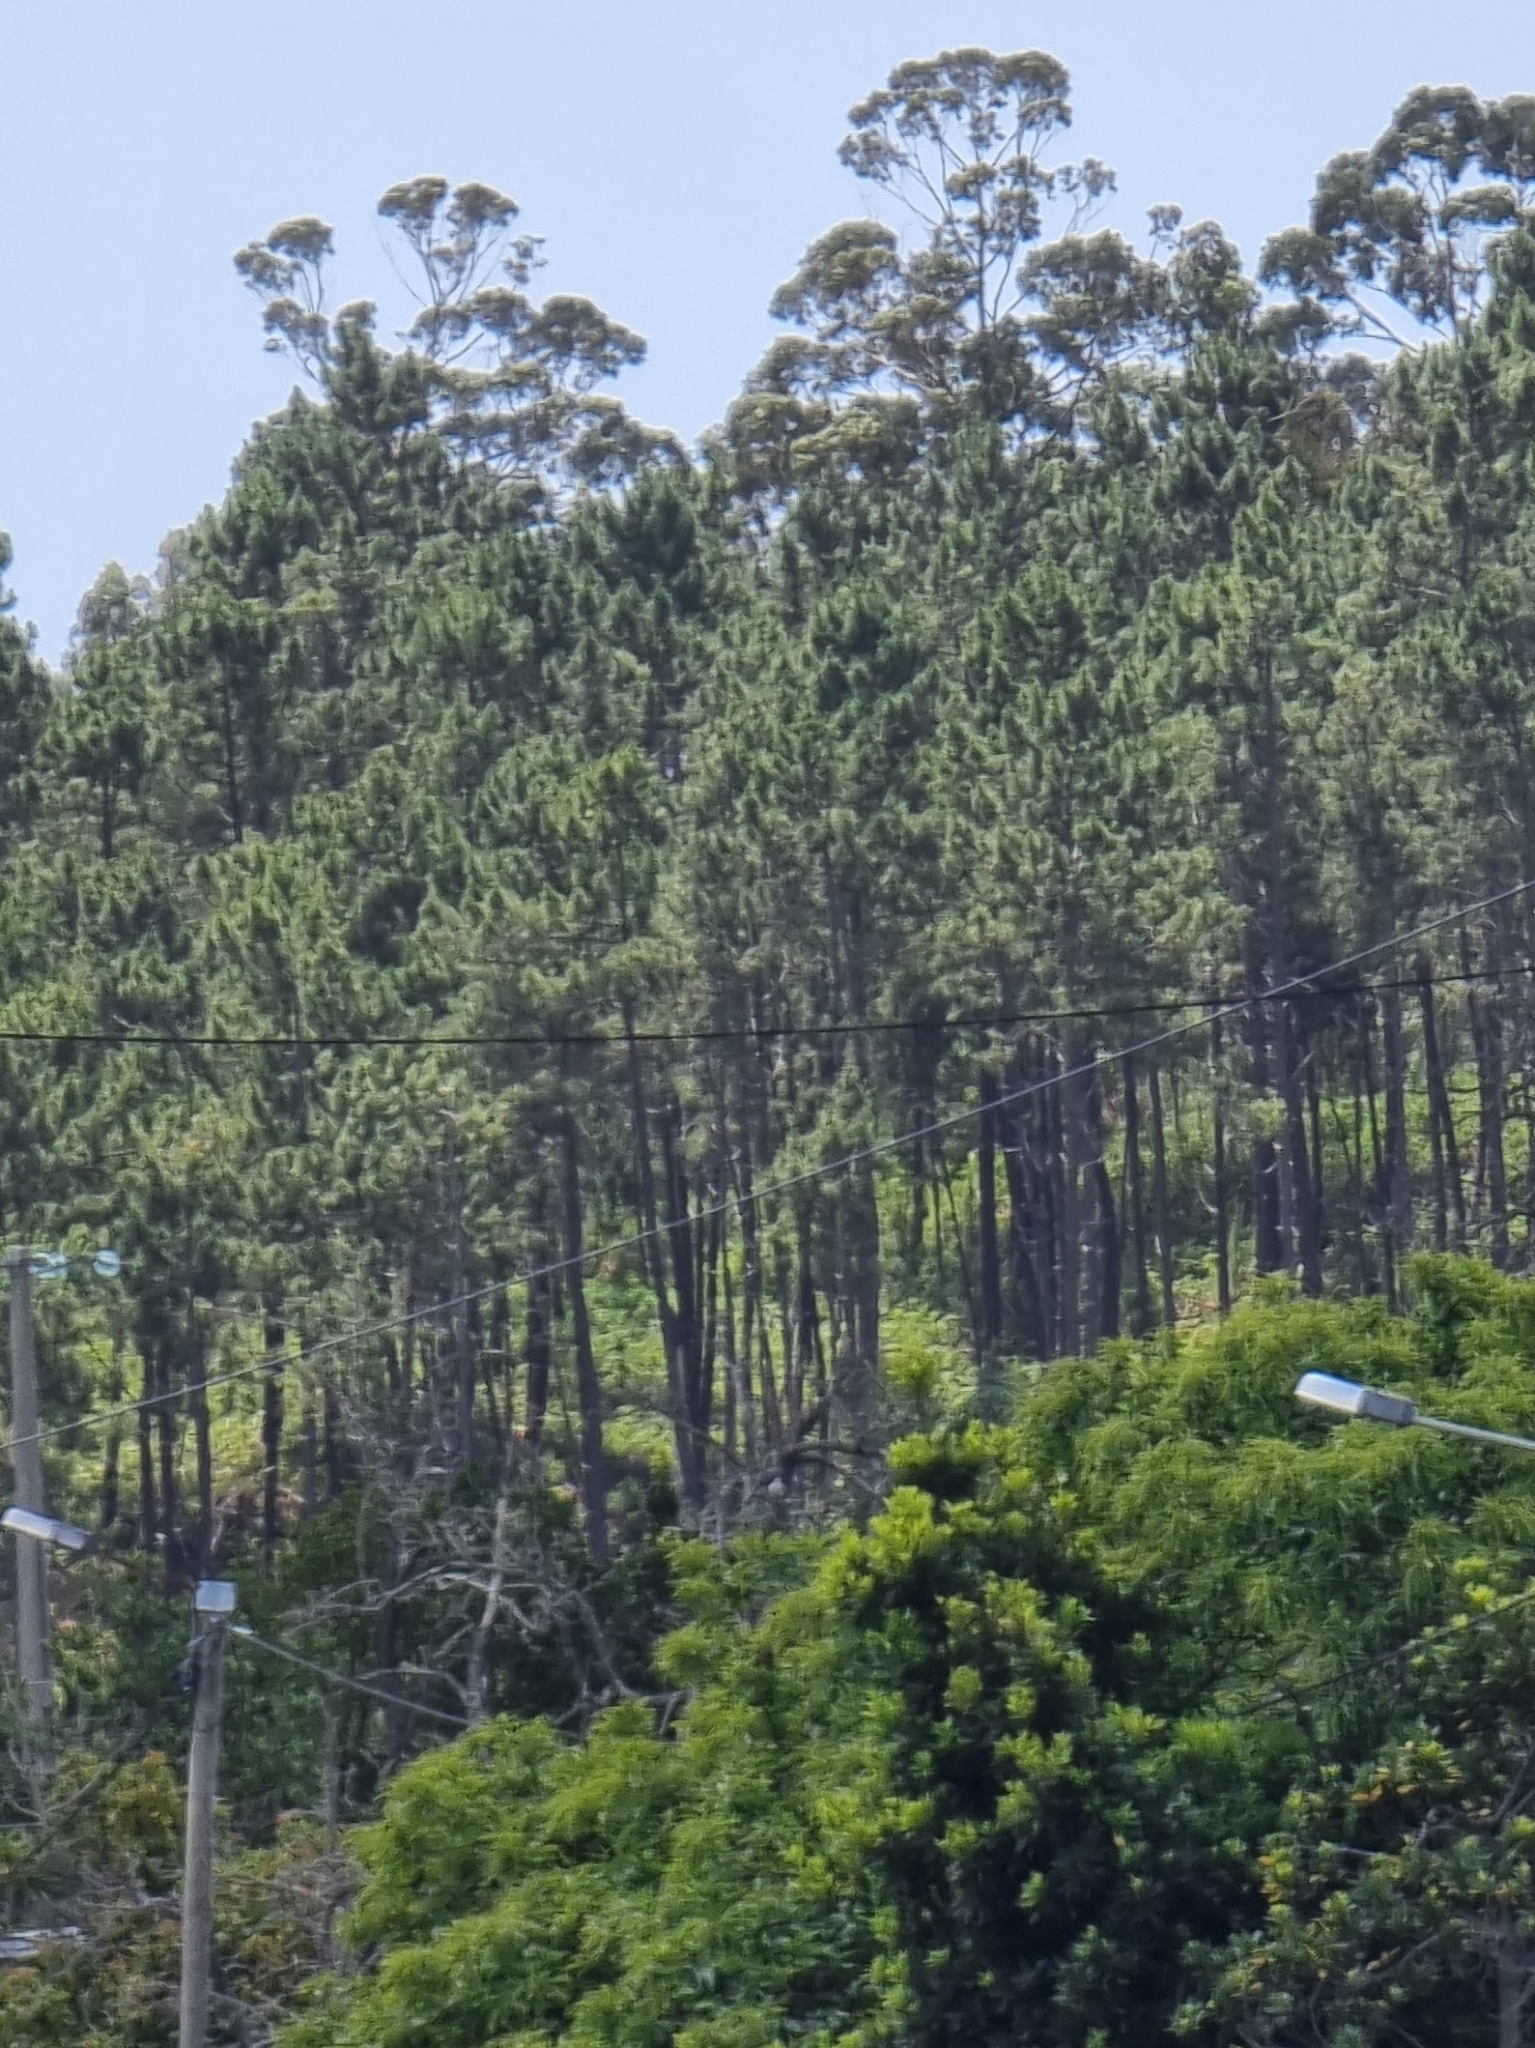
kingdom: Plantae
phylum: Tracheophyta
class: Pinopsida
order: Pinales
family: Pinaceae
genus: Pinus
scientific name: Pinus pinaster
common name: Maritime pine
